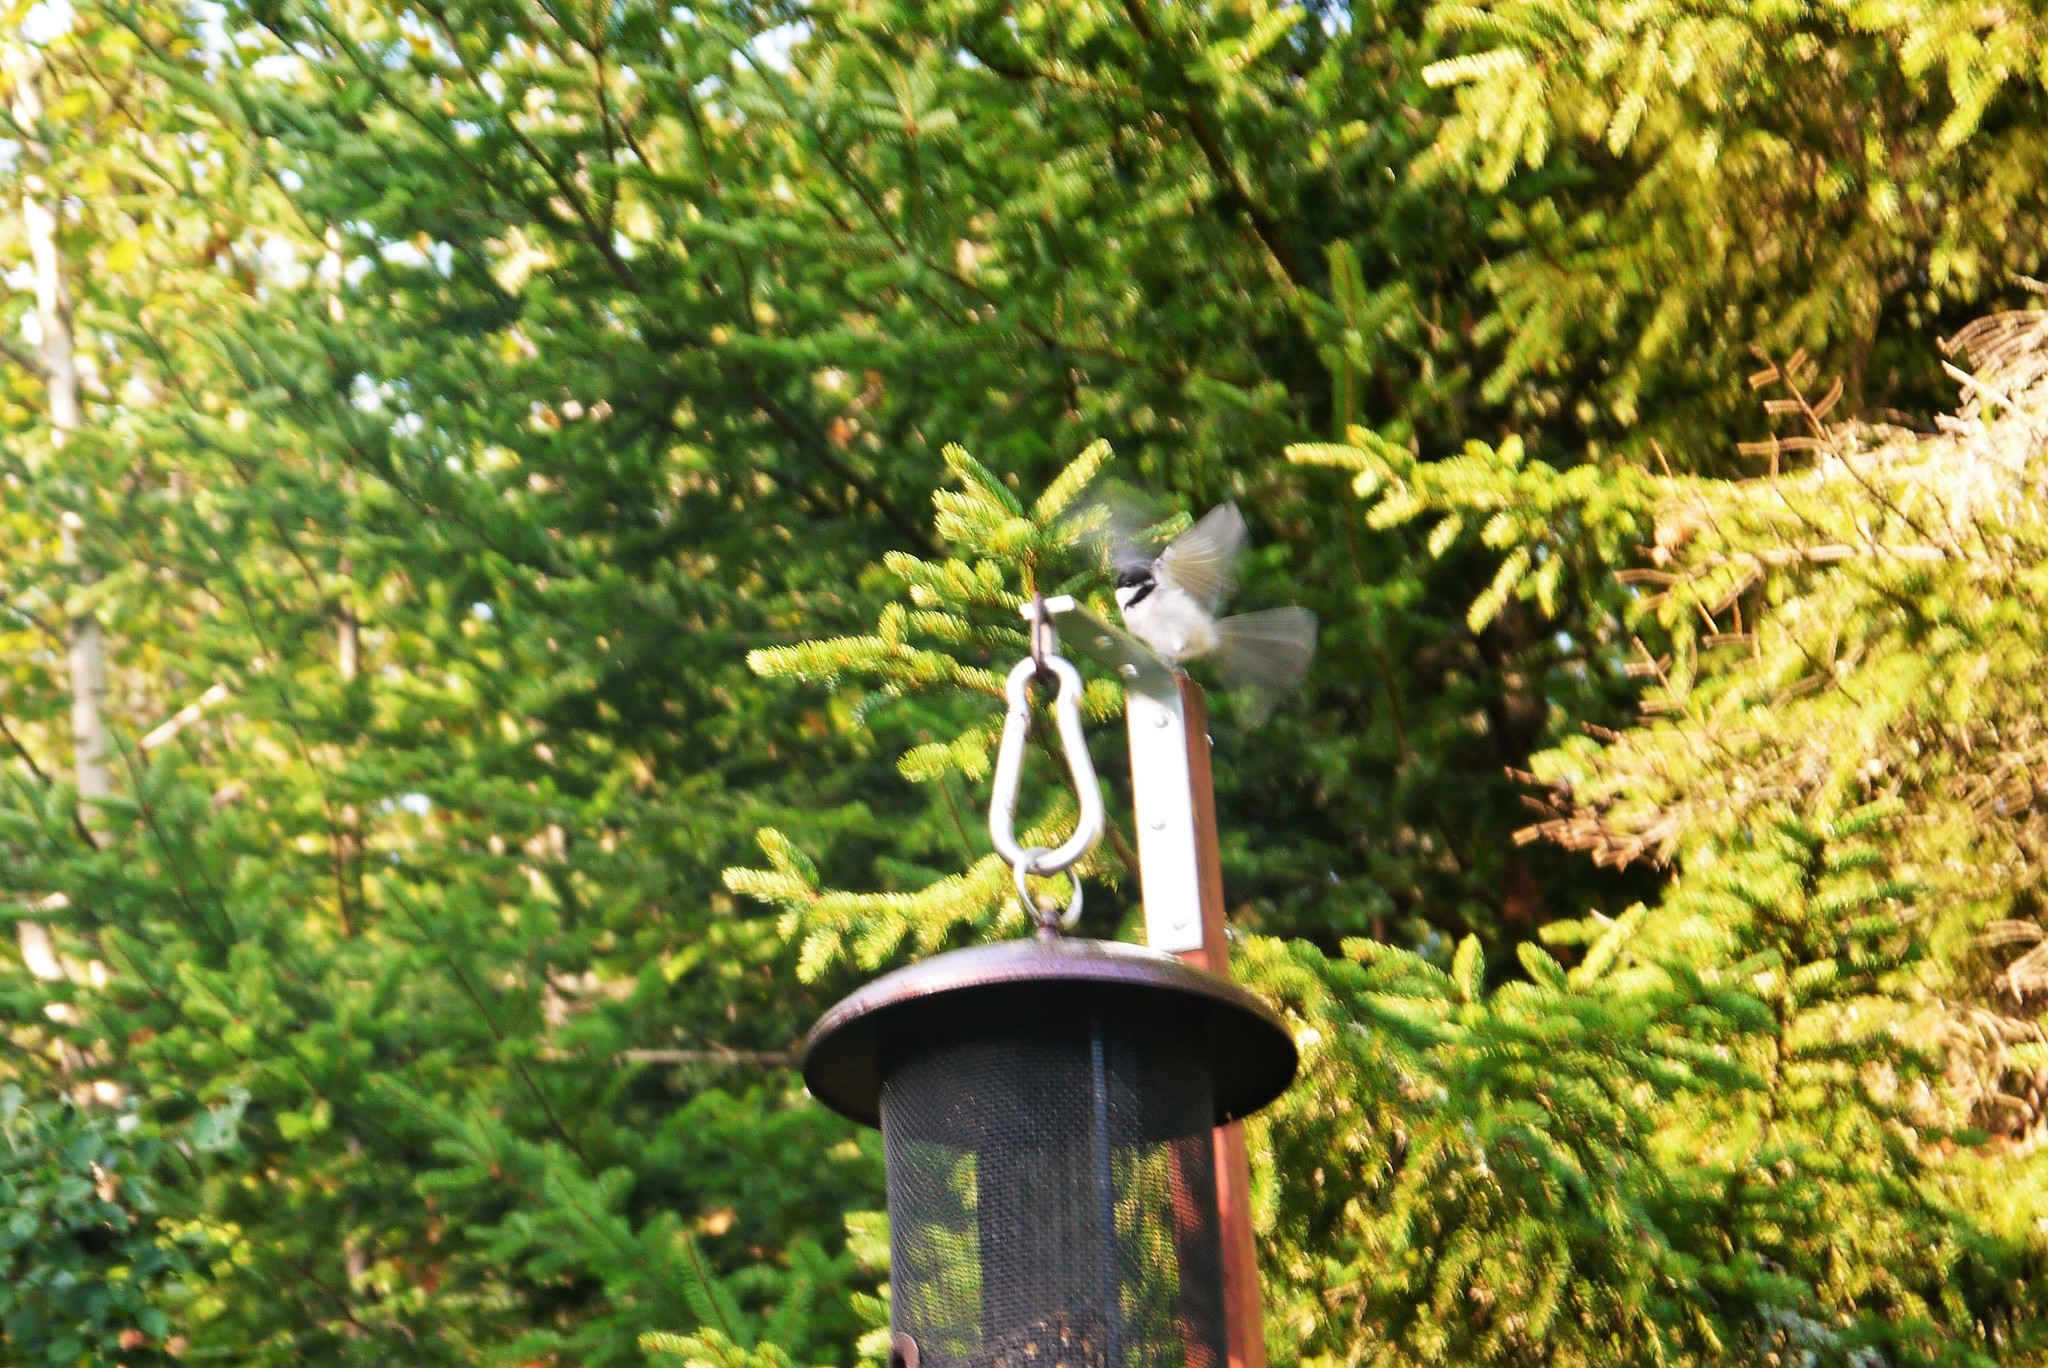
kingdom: Animalia
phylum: Chordata
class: Aves
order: Passeriformes
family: Paridae
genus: Poecile
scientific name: Poecile atricapillus
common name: Black-capped chickadee
